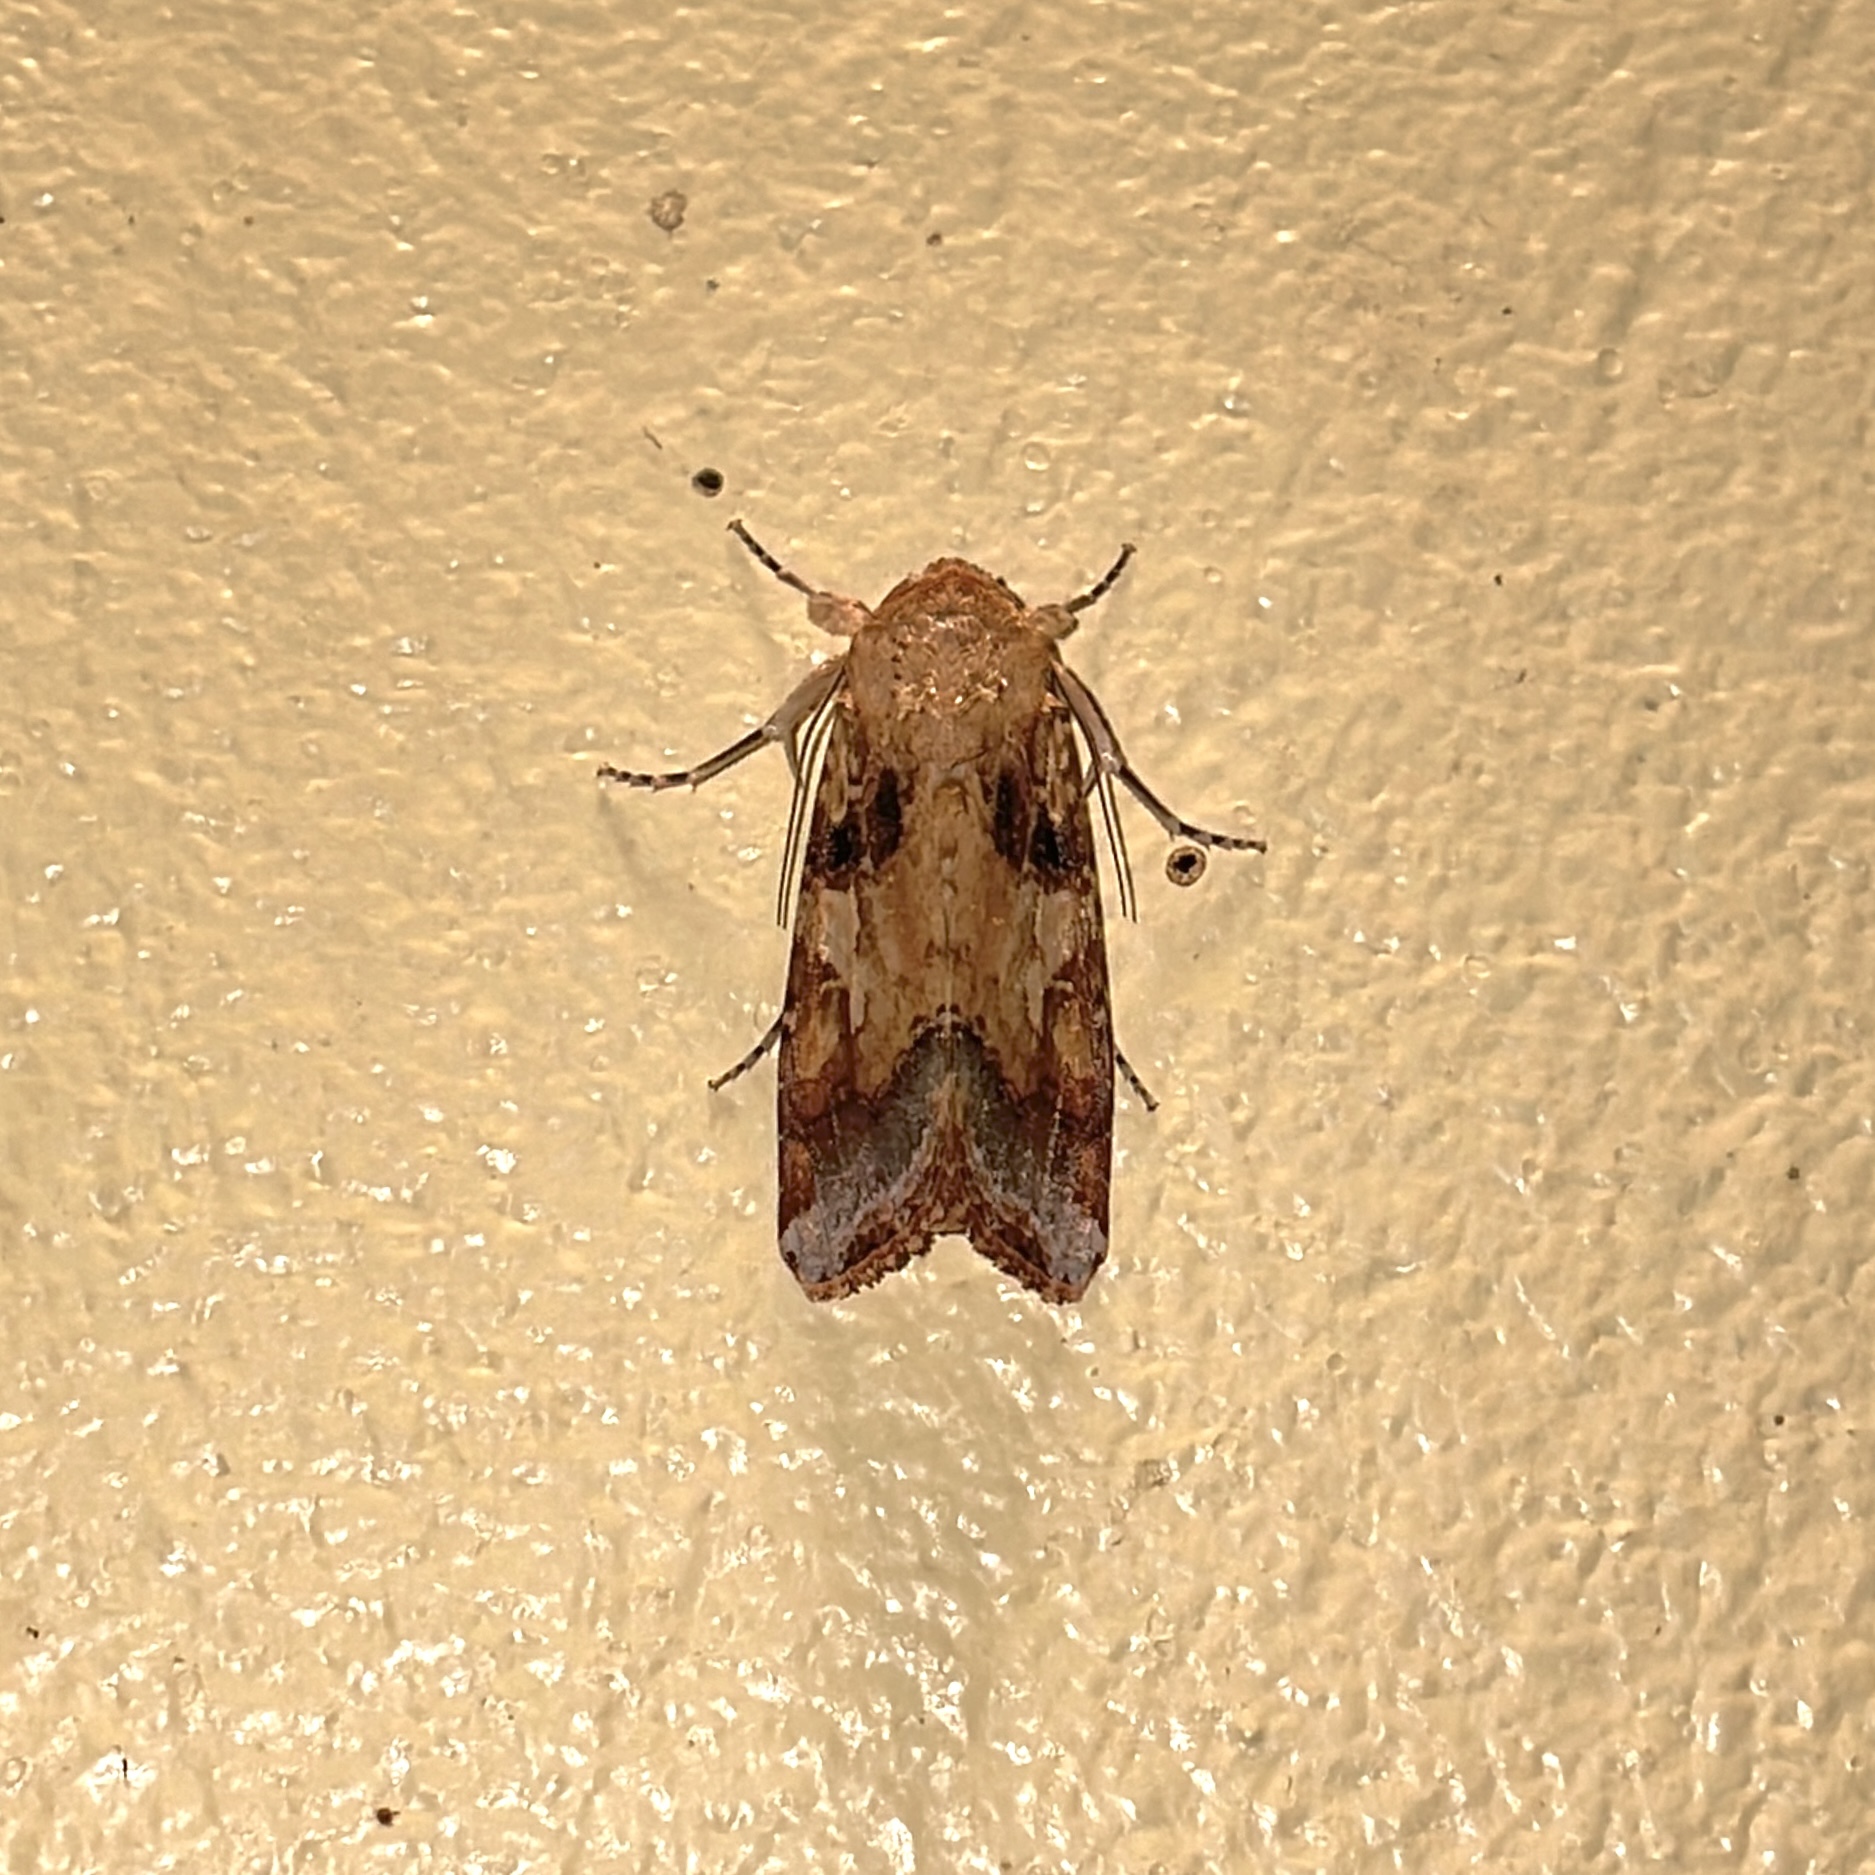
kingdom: Animalia
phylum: Arthropoda
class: Insecta
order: Lepidoptera
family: Noctuidae
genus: Spodoptera
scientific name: Spodoptera cosmioides
